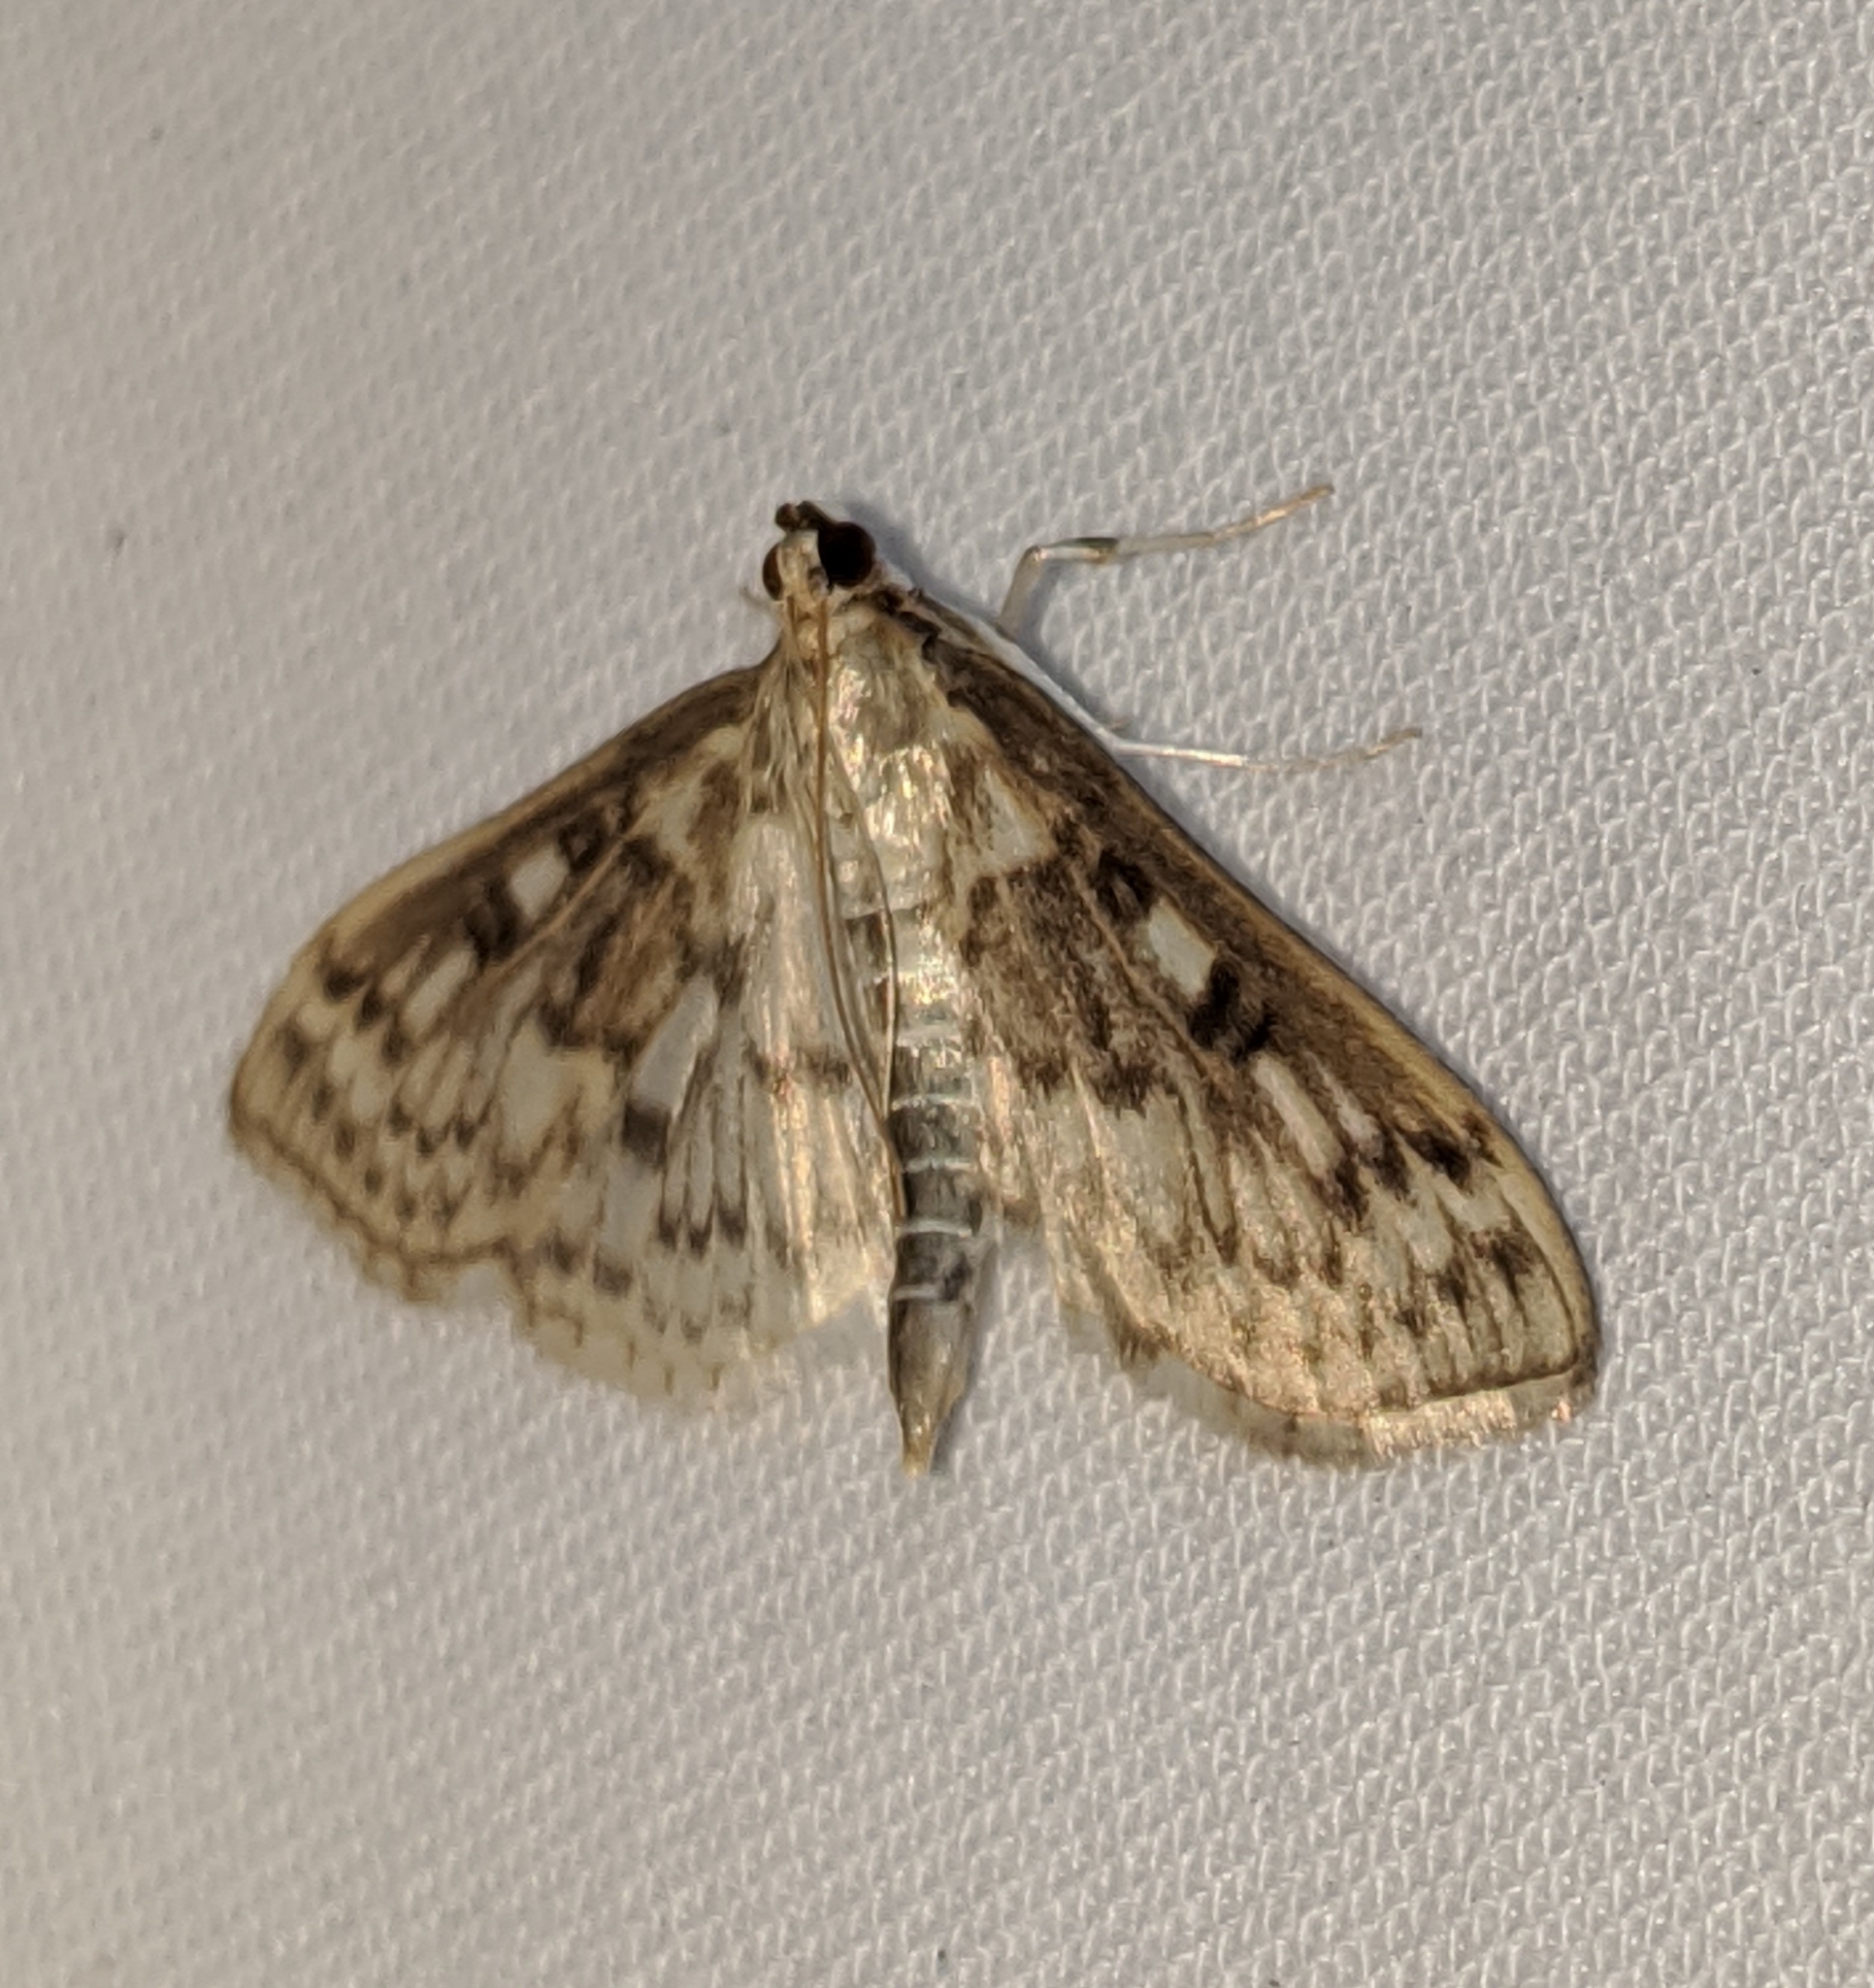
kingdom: Animalia
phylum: Arthropoda
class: Insecta
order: Lepidoptera
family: Crambidae
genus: Herpetogramma
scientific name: Herpetogramma aquilonalis
